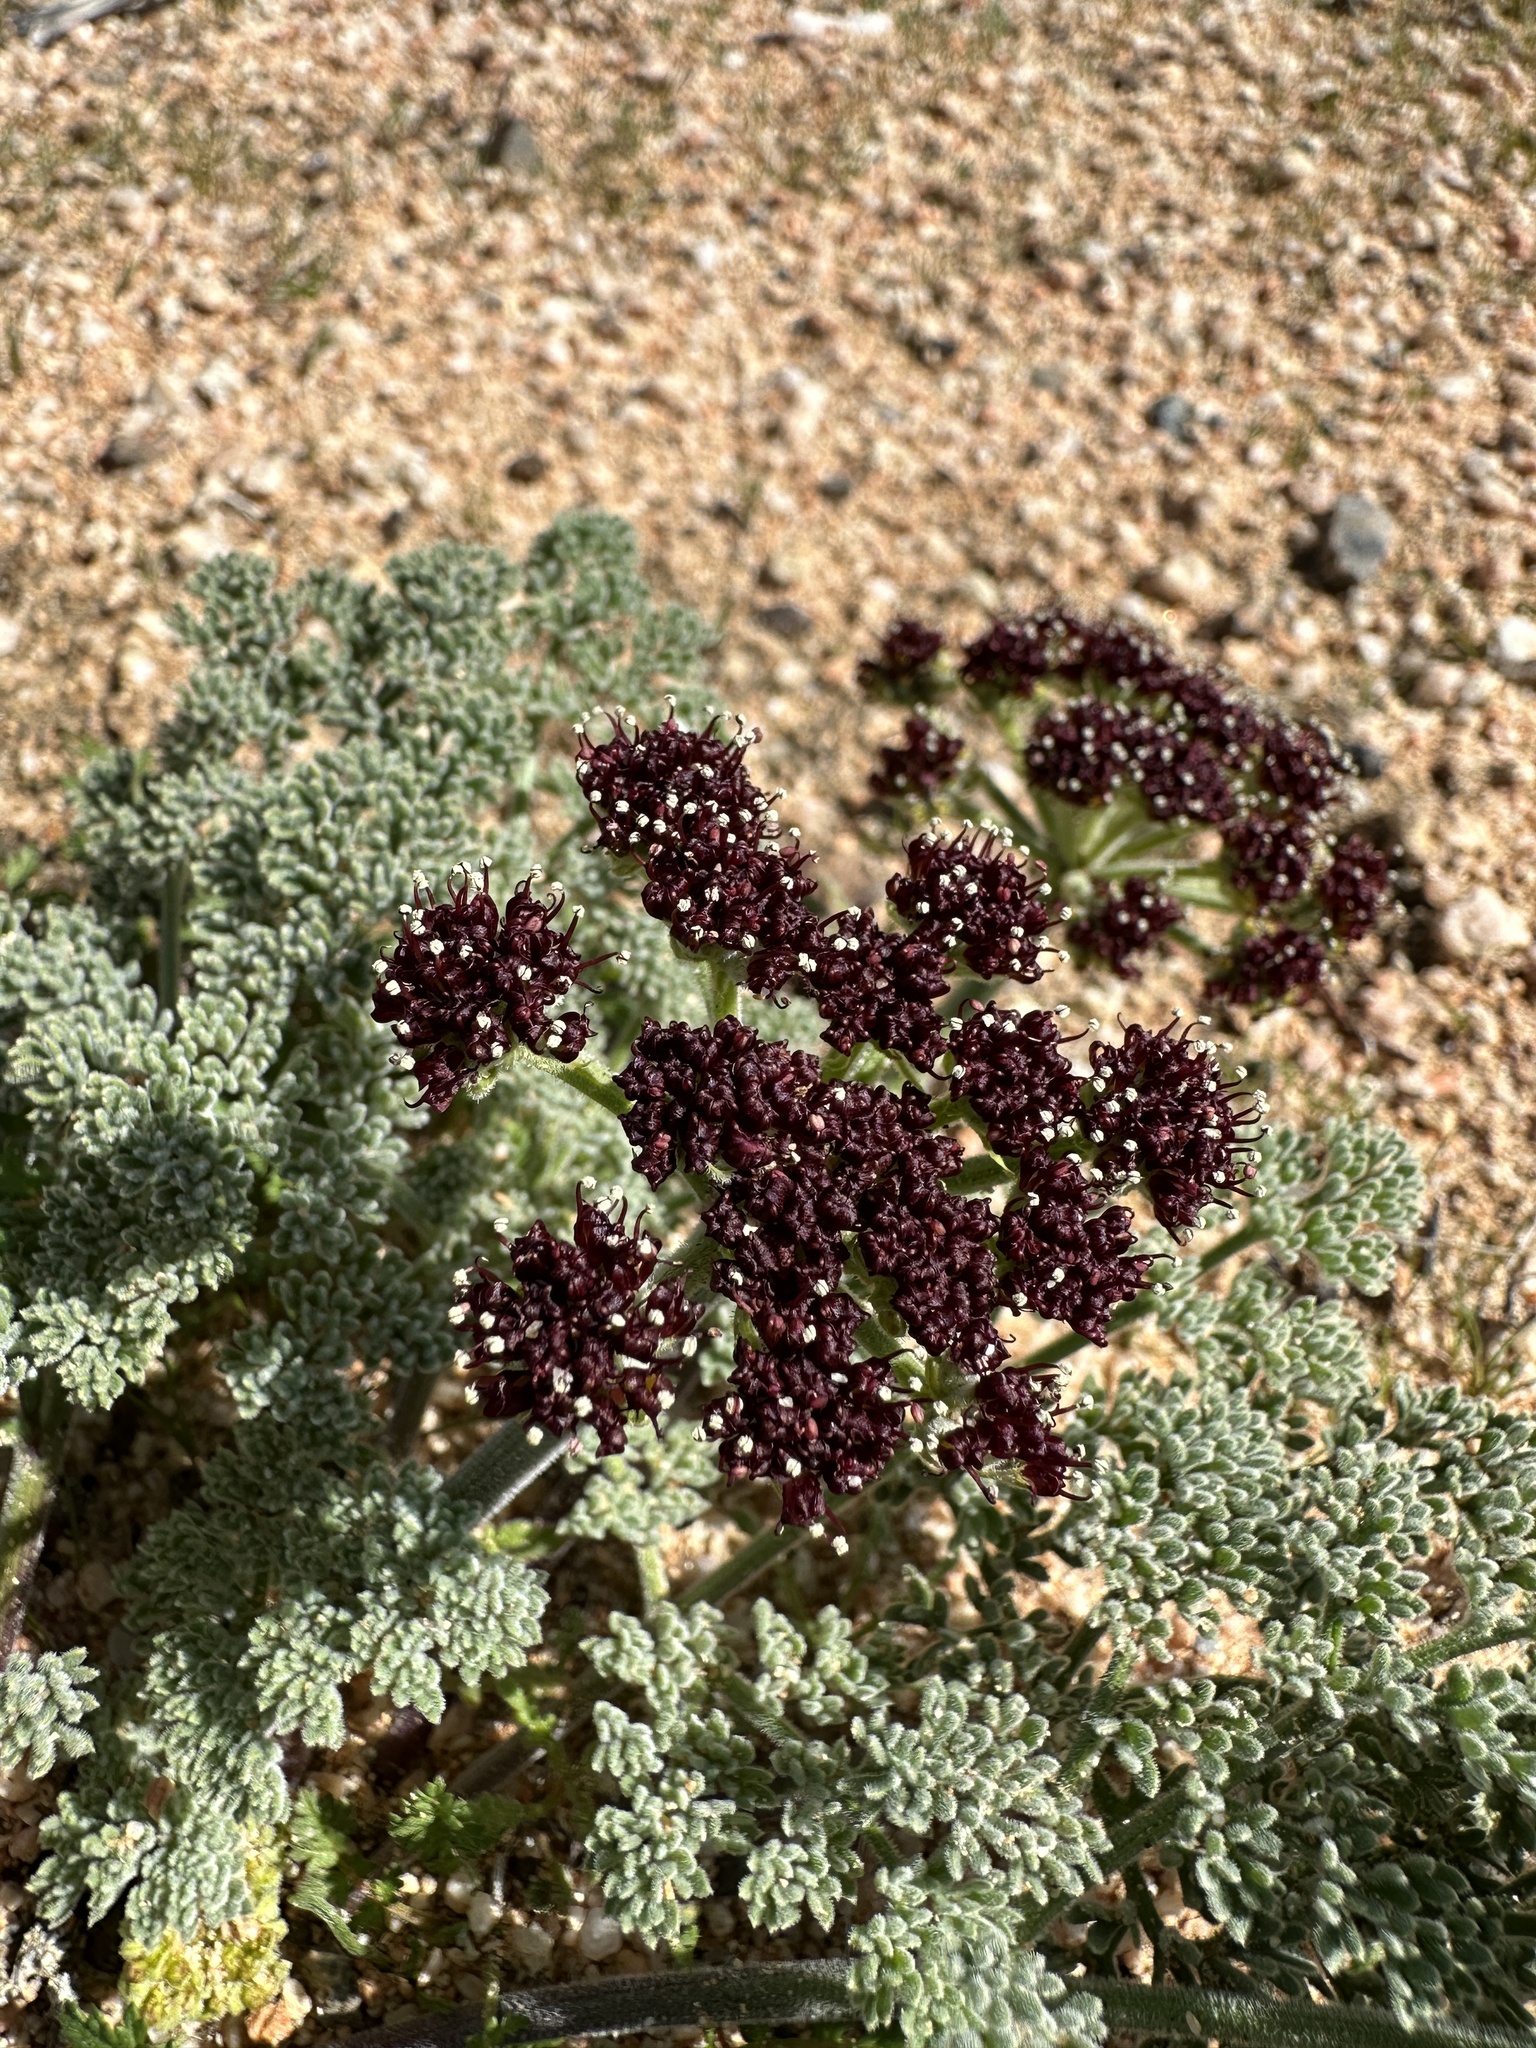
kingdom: Plantae
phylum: Tracheophyta
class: Magnoliopsida
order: Apiales
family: Apiaceae
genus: Lomatium
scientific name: Lomatium mohavense
